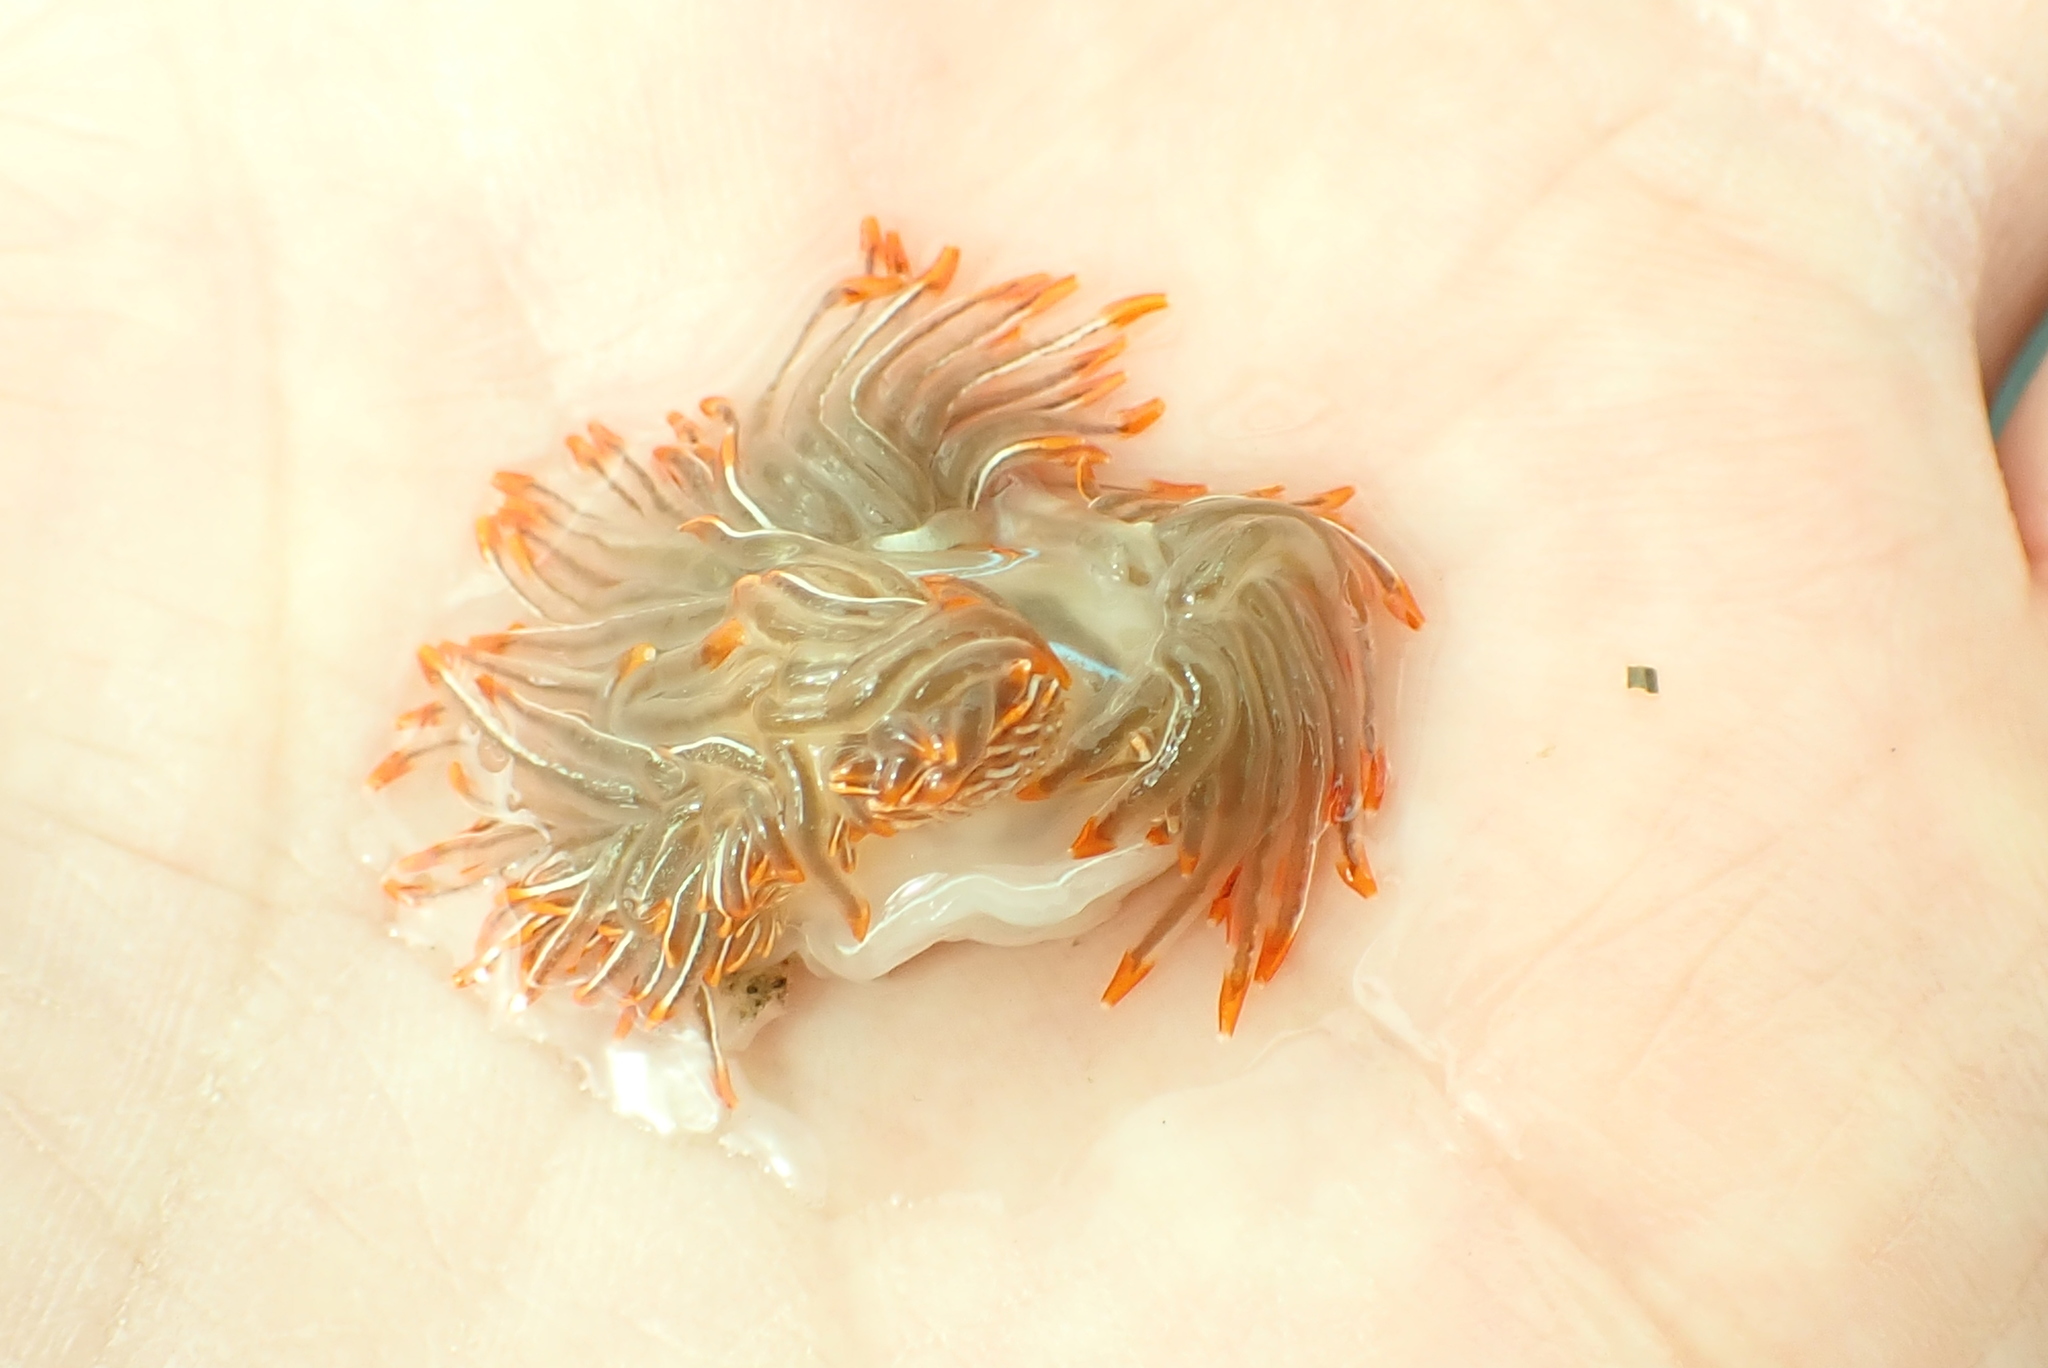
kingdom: Animalia
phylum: Mollusca
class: Gastropoda
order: Nudibranchia
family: Myrrhinidae
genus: Hermissenda
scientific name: Hermissenda crassicornis
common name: Hermissenda
